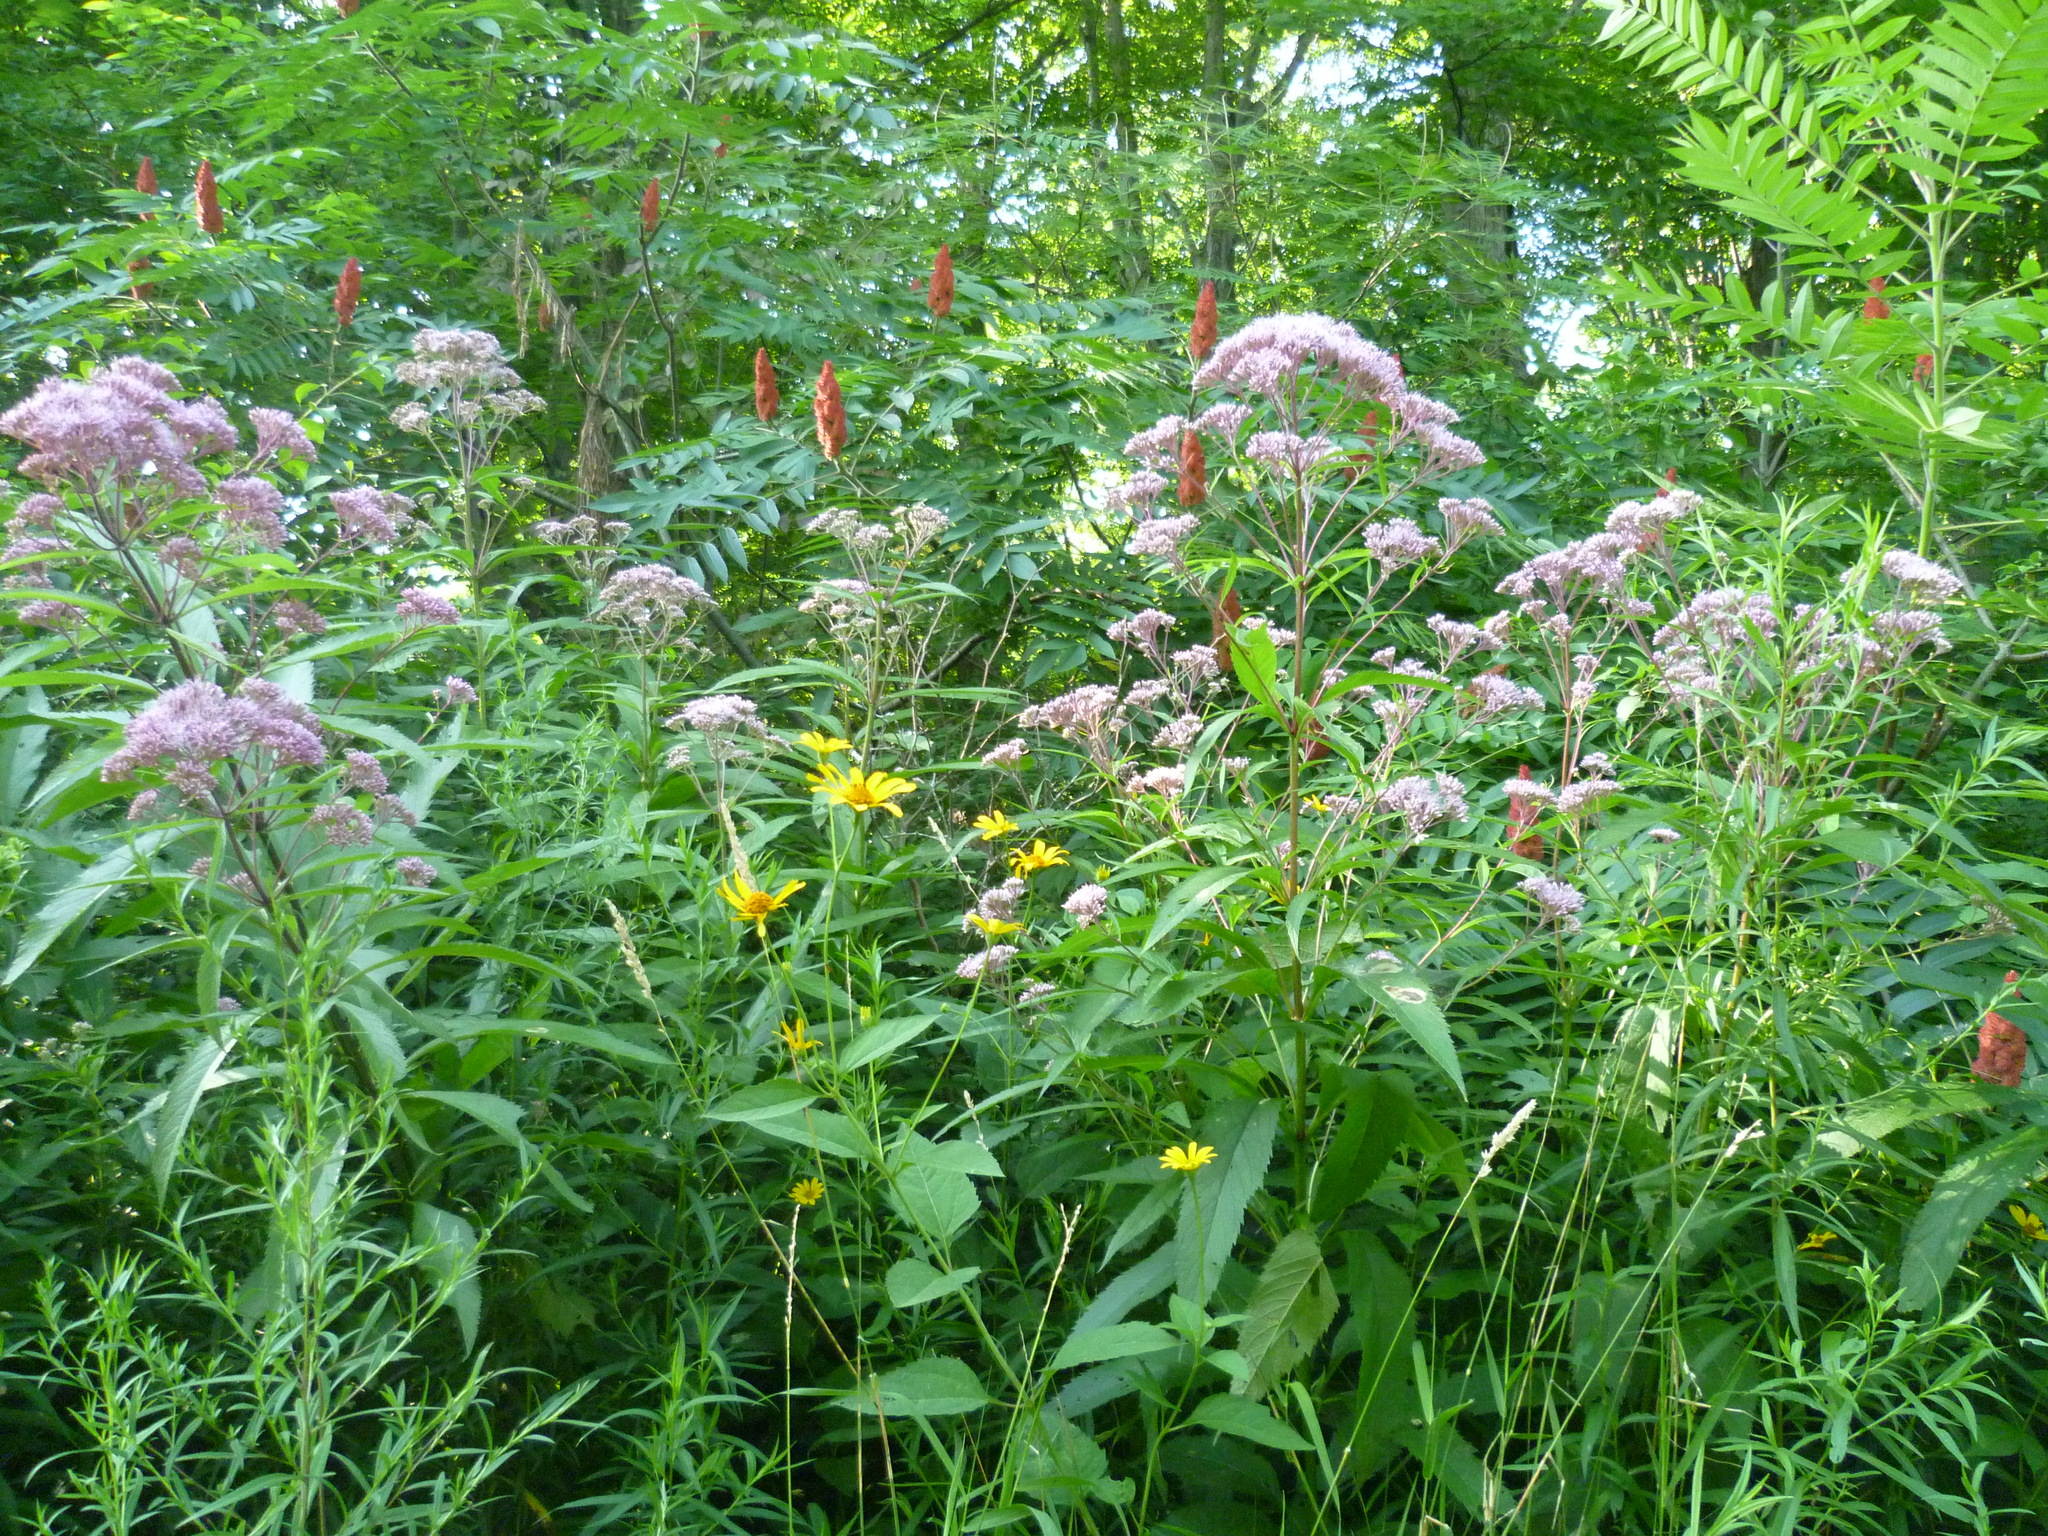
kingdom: Plantae
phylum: Tracheophyta
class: Magnoliopsida
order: Asterales
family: Asteraceae
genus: Eutrochium
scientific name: Eutrochium maculatum
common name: Spotted joe pye weed
